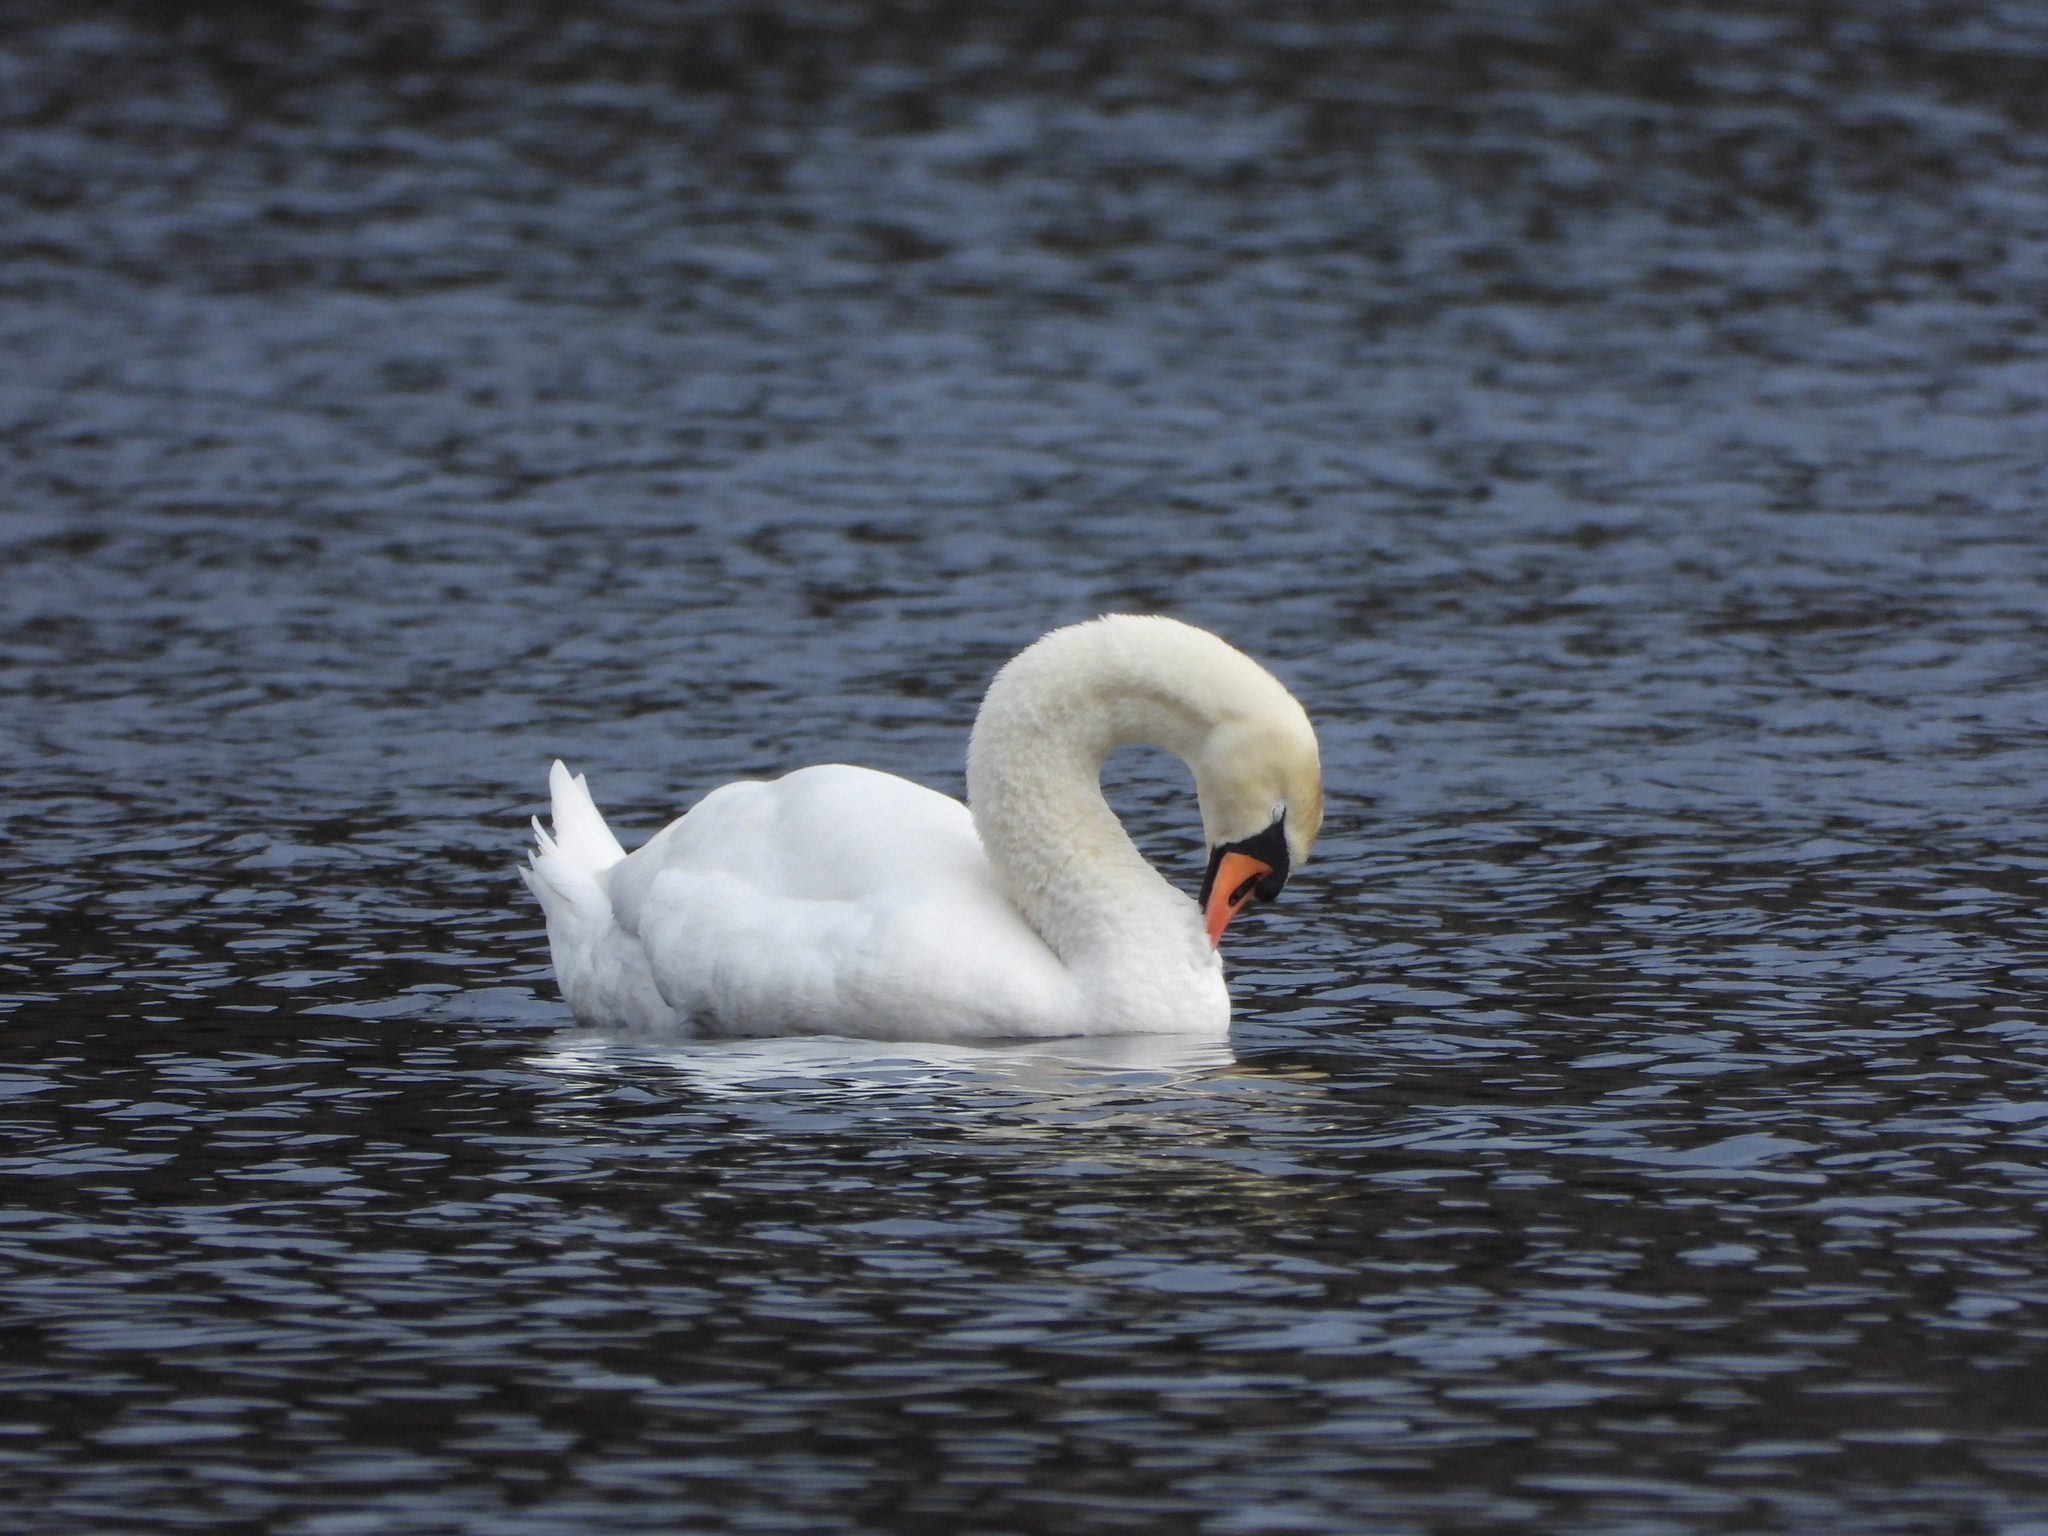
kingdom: Animalia
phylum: Chordata
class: Aves
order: Anseriformes
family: Anatidae
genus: Cygnus
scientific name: Cygnus olor
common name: Mute swan
